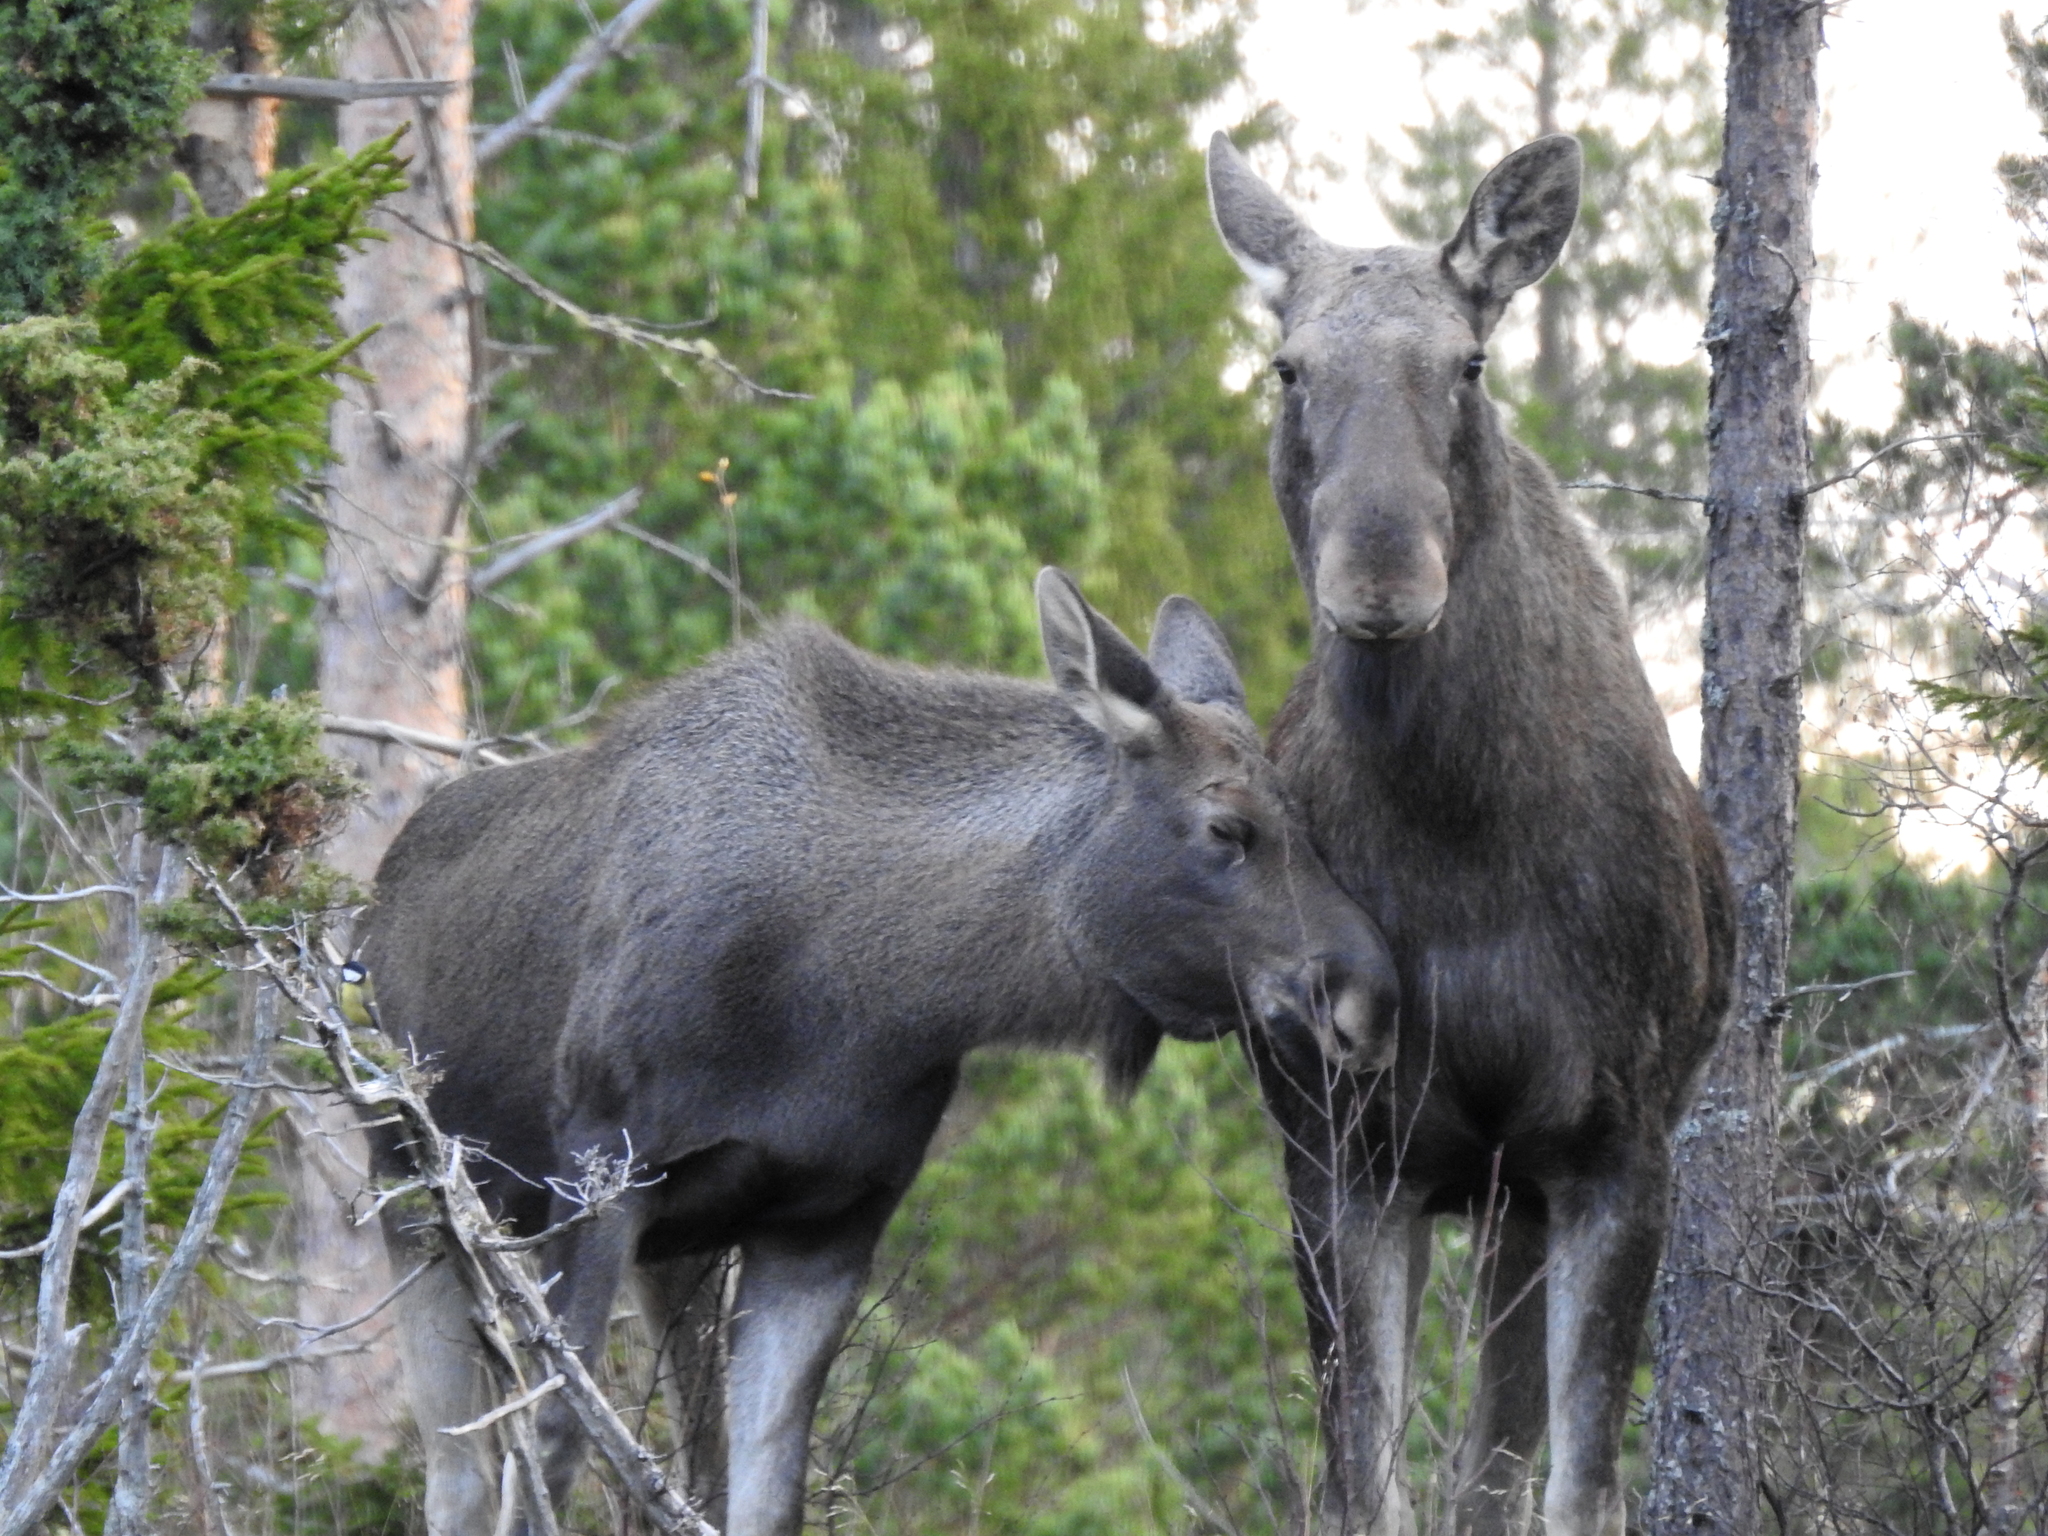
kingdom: Animalia
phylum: Chordata
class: Mammalia
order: Artiodactyla
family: Cervidae
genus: Alces
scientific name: Alces alces
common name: Moose
